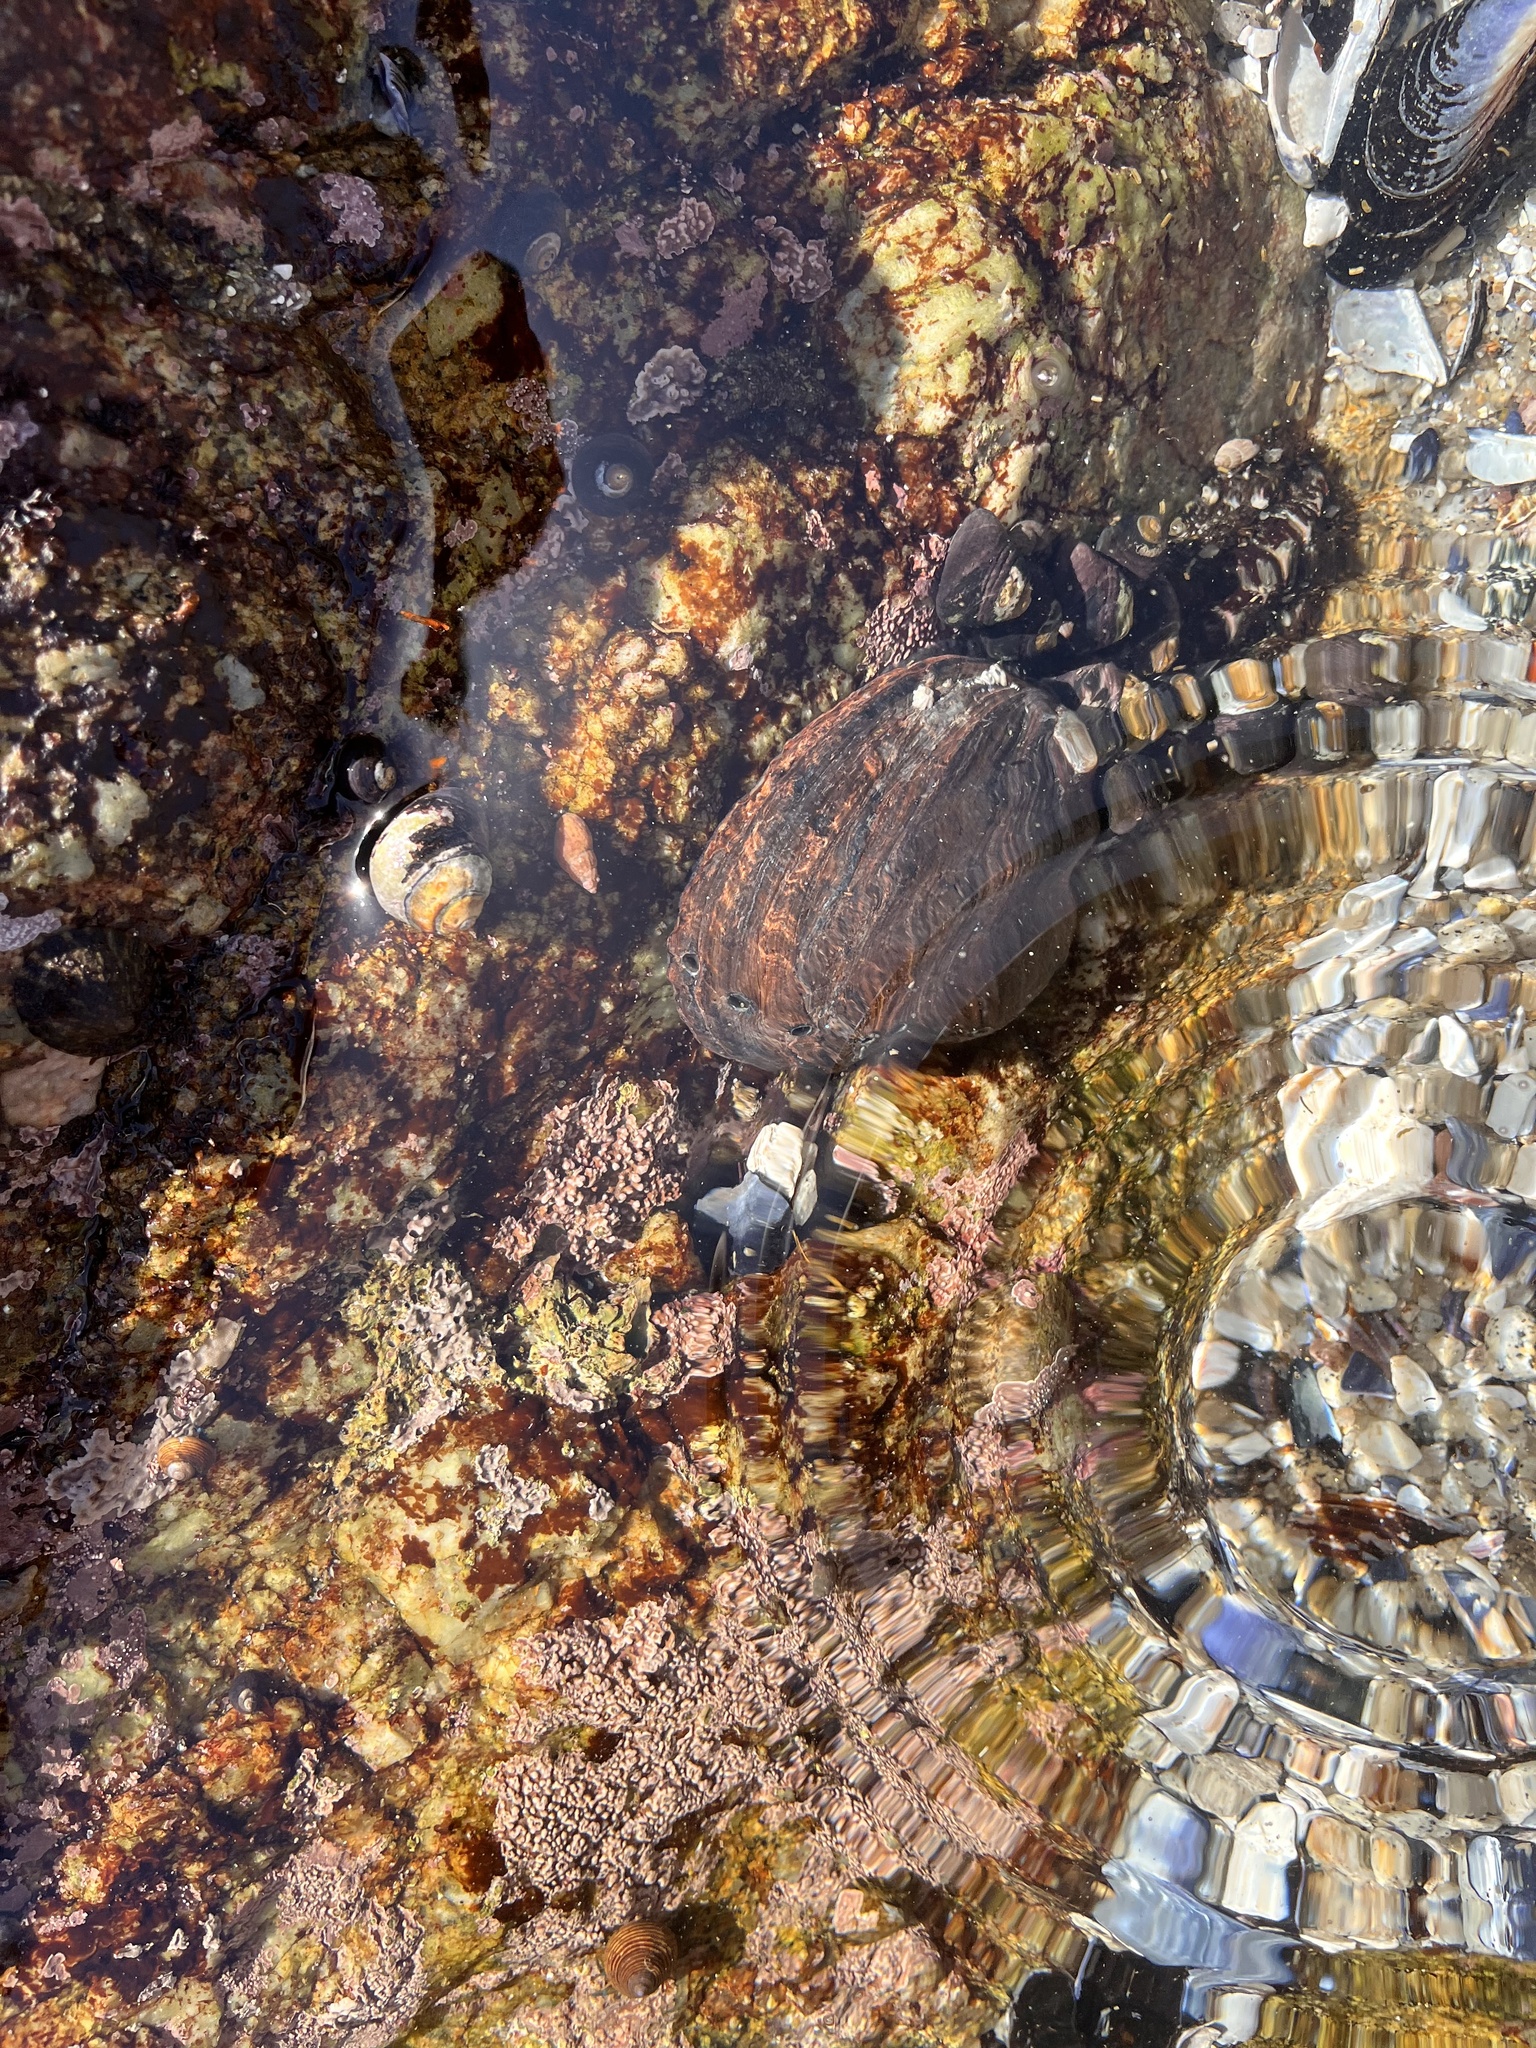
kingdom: Animalia
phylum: Mollusca
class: Gastropoda
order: Lepetellida
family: Haliotidae
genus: Haliotis
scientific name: Haliotis cracherodii
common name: Black abalone
